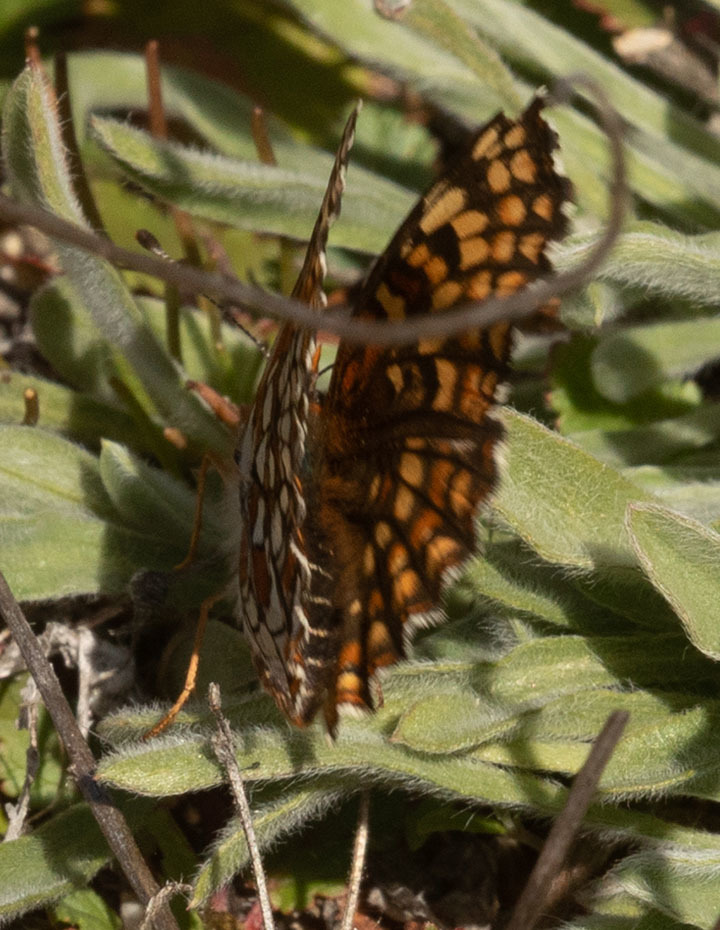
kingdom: Animalia
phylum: Arthropoda
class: Insecta
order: Lepidoptera
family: Nymphalidae
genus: Chlosyne
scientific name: Chlosyne gabbii
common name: Gabb's checkerspot
